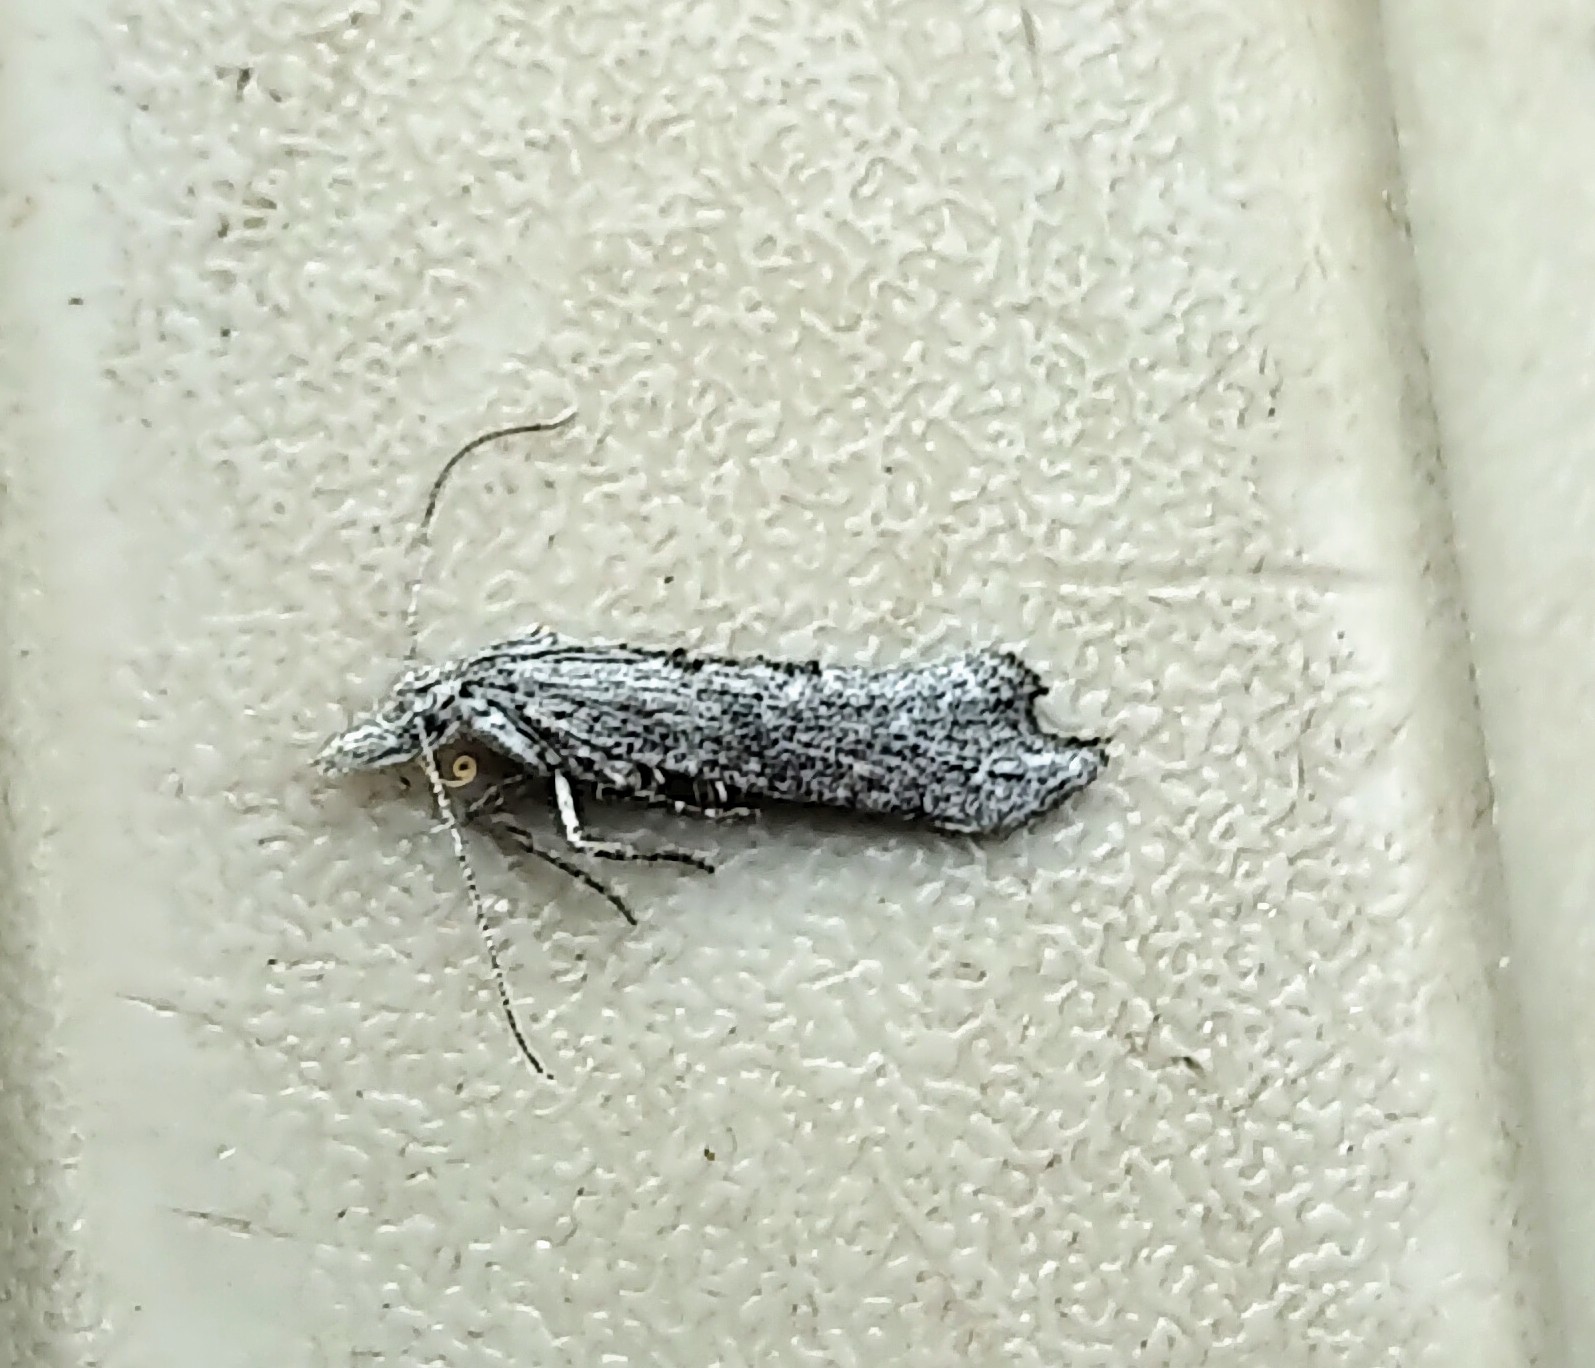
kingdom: Animalia
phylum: Arthropoda
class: Insecta
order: Lepidoptera
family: Ypsolophidae
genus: Ypsolopha
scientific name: Ypsolopha falciferella
